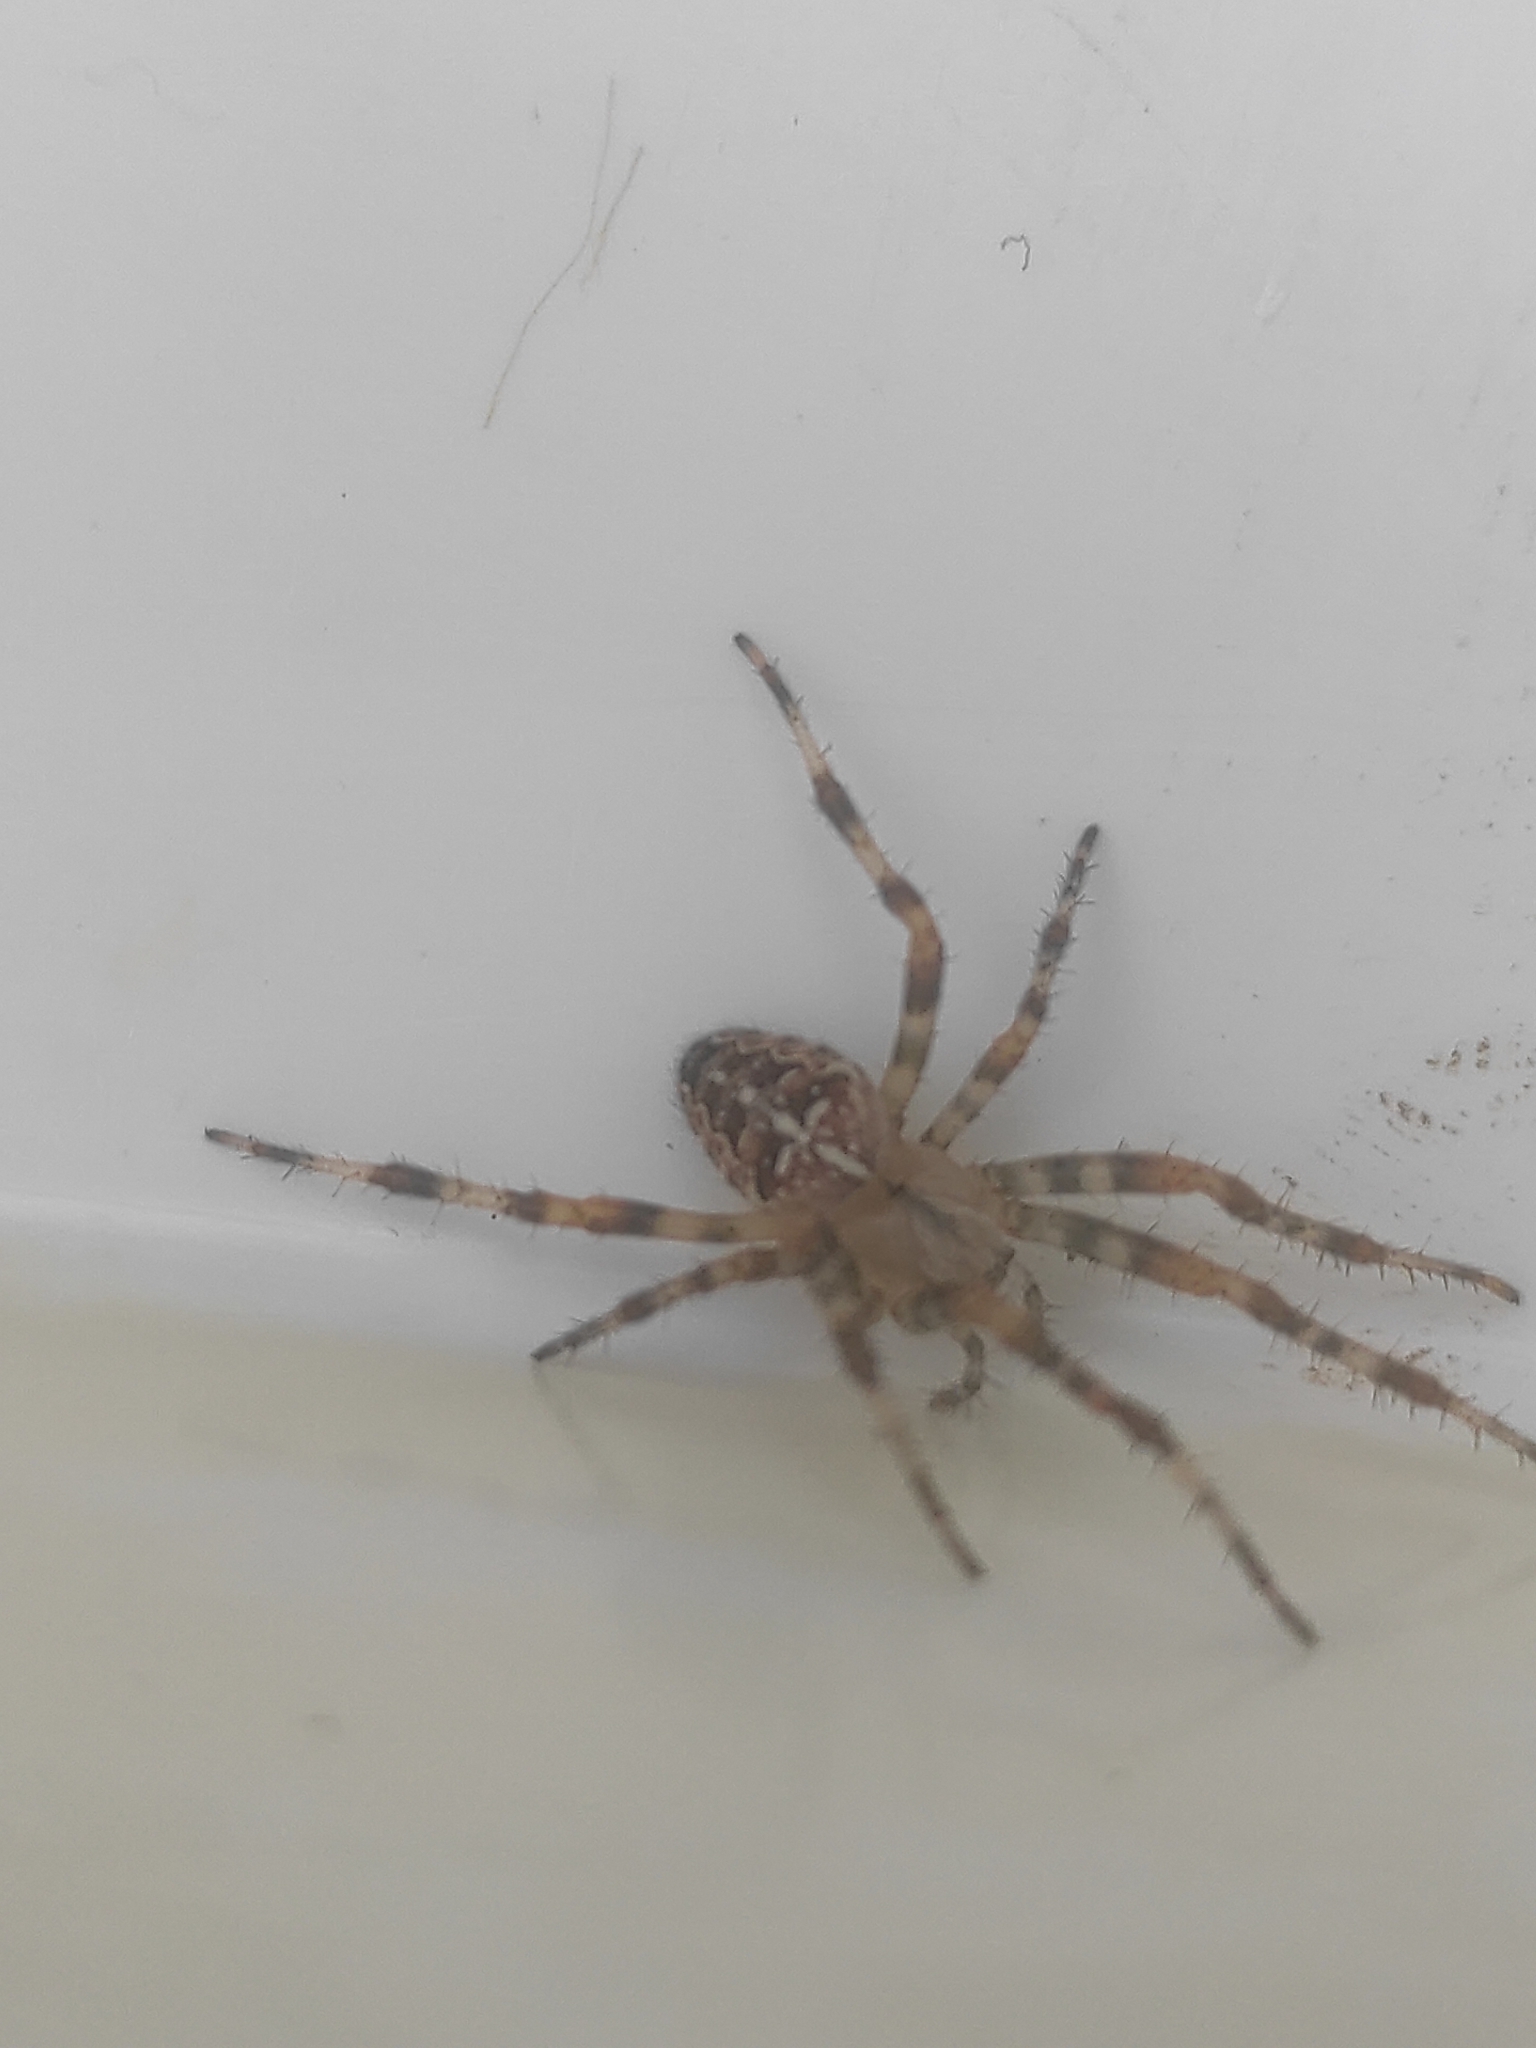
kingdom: Animalia
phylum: Arthropoda
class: Arachnida
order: Araneae
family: Araneidae
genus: Araneus
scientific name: Araneus diadematus
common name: Cross orbweaver
